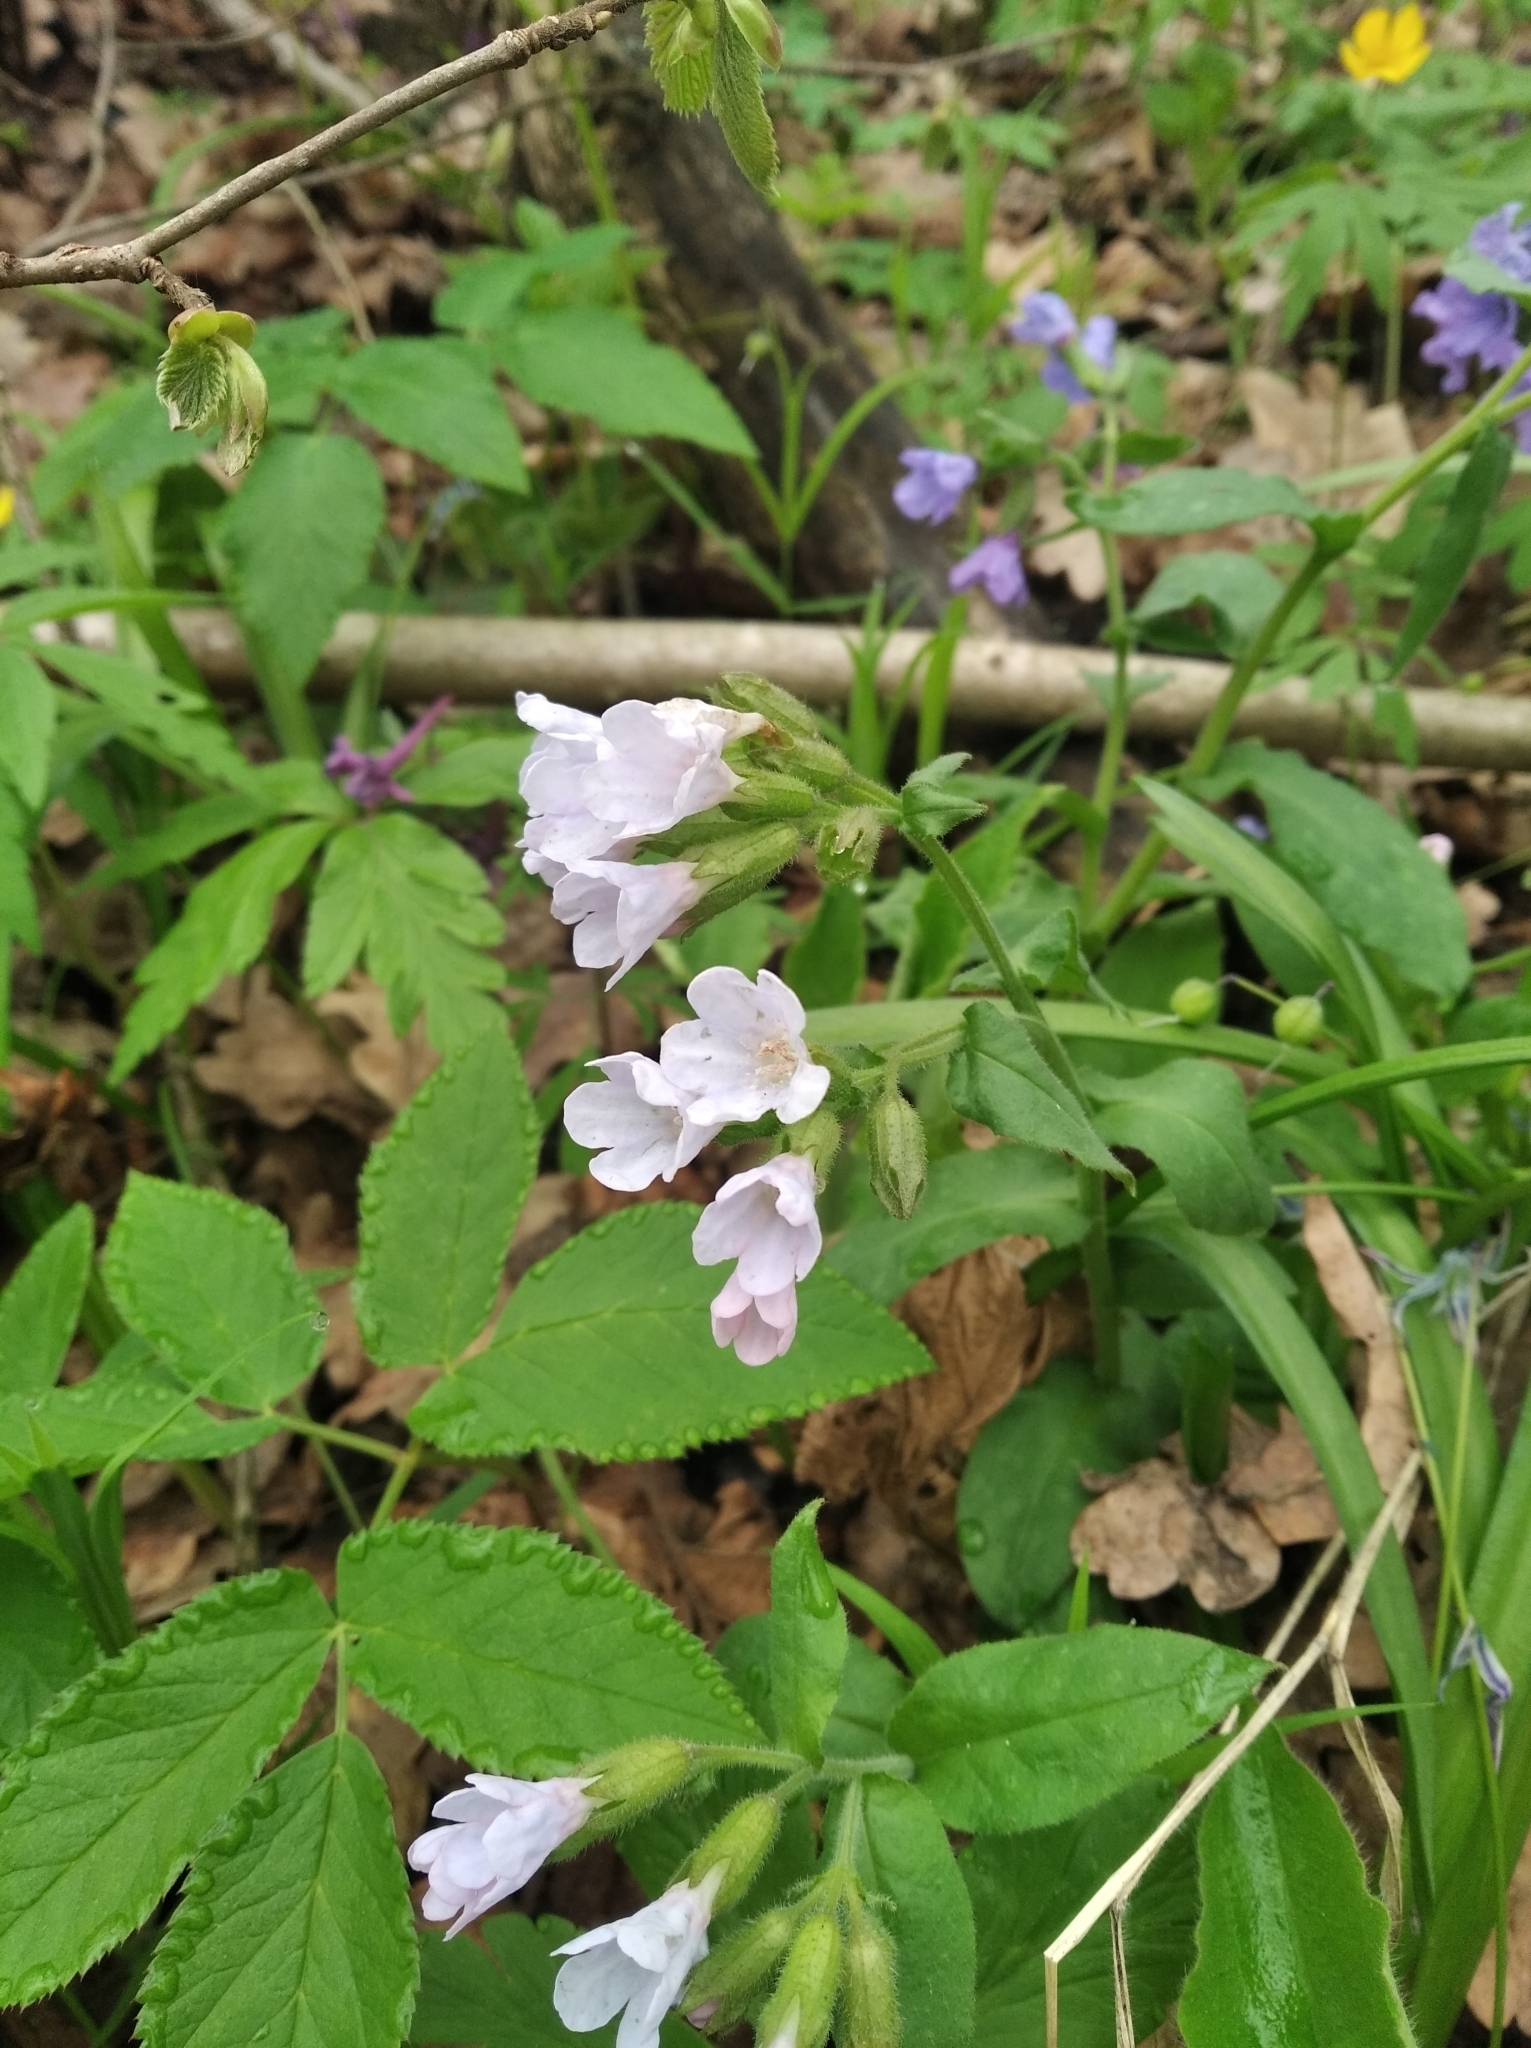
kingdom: Plantae
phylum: Tracheophyta
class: Magnoliopsida
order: Boraginales
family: Boraginaceae
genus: Pulmonaria
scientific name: Pulmonaria obscura
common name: Suffolk lungwort
